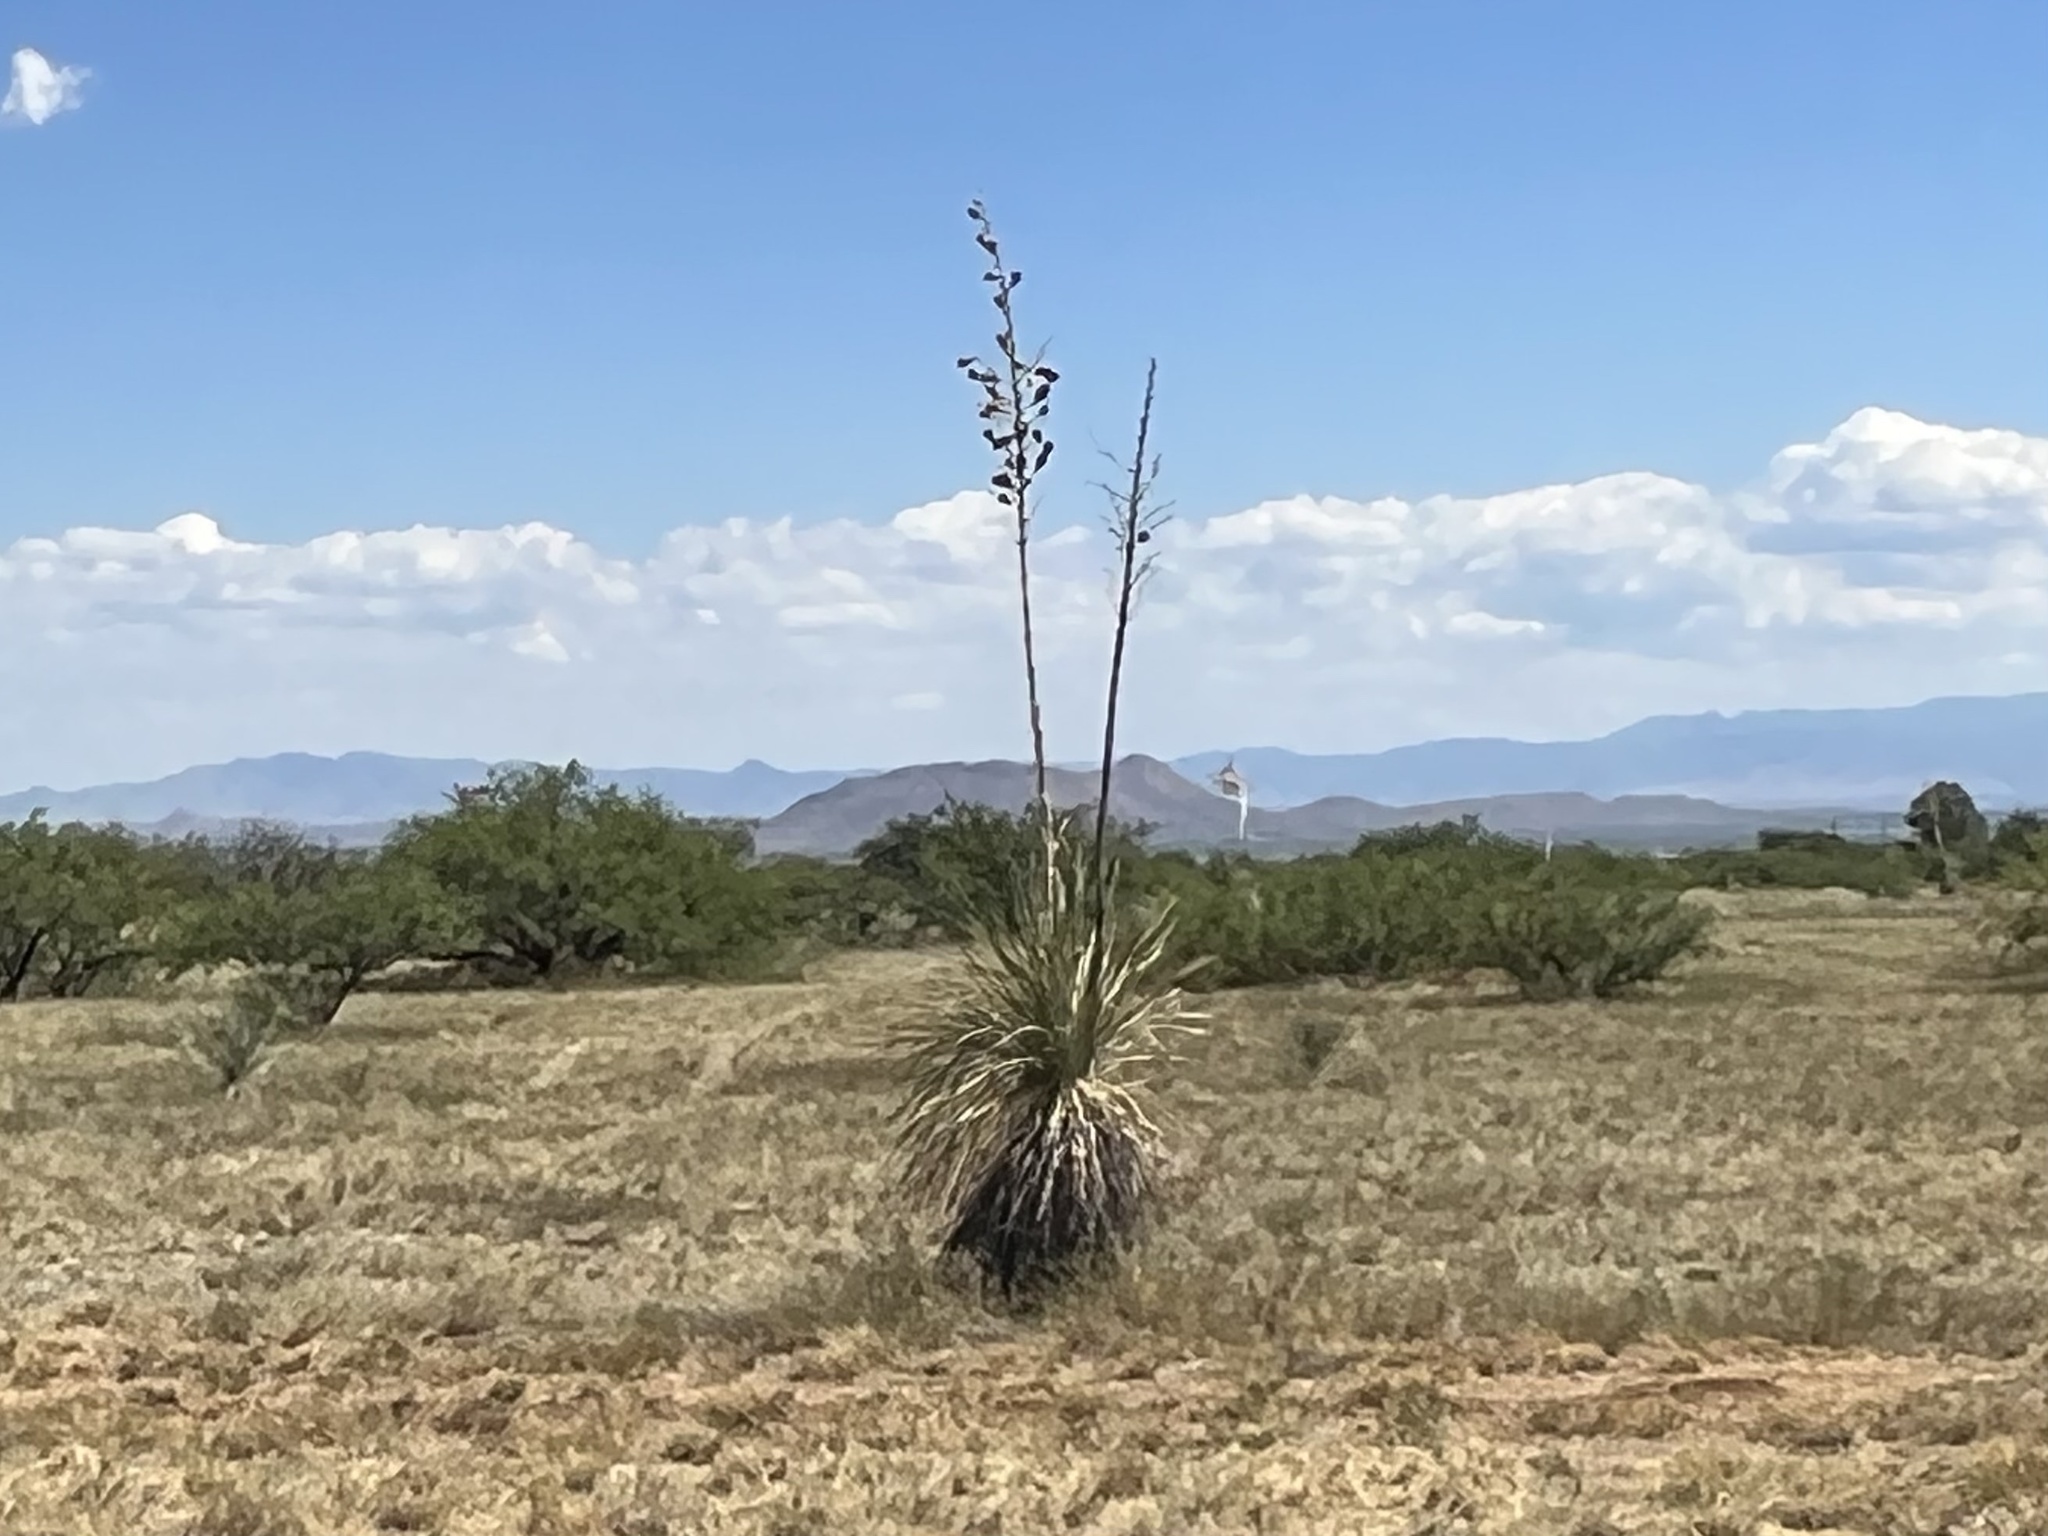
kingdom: Plantae
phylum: Tracheophyta
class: Liliopsida
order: Asparagales
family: Asparagaceae
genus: Yucca
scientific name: Yucca elata
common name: Palmella
